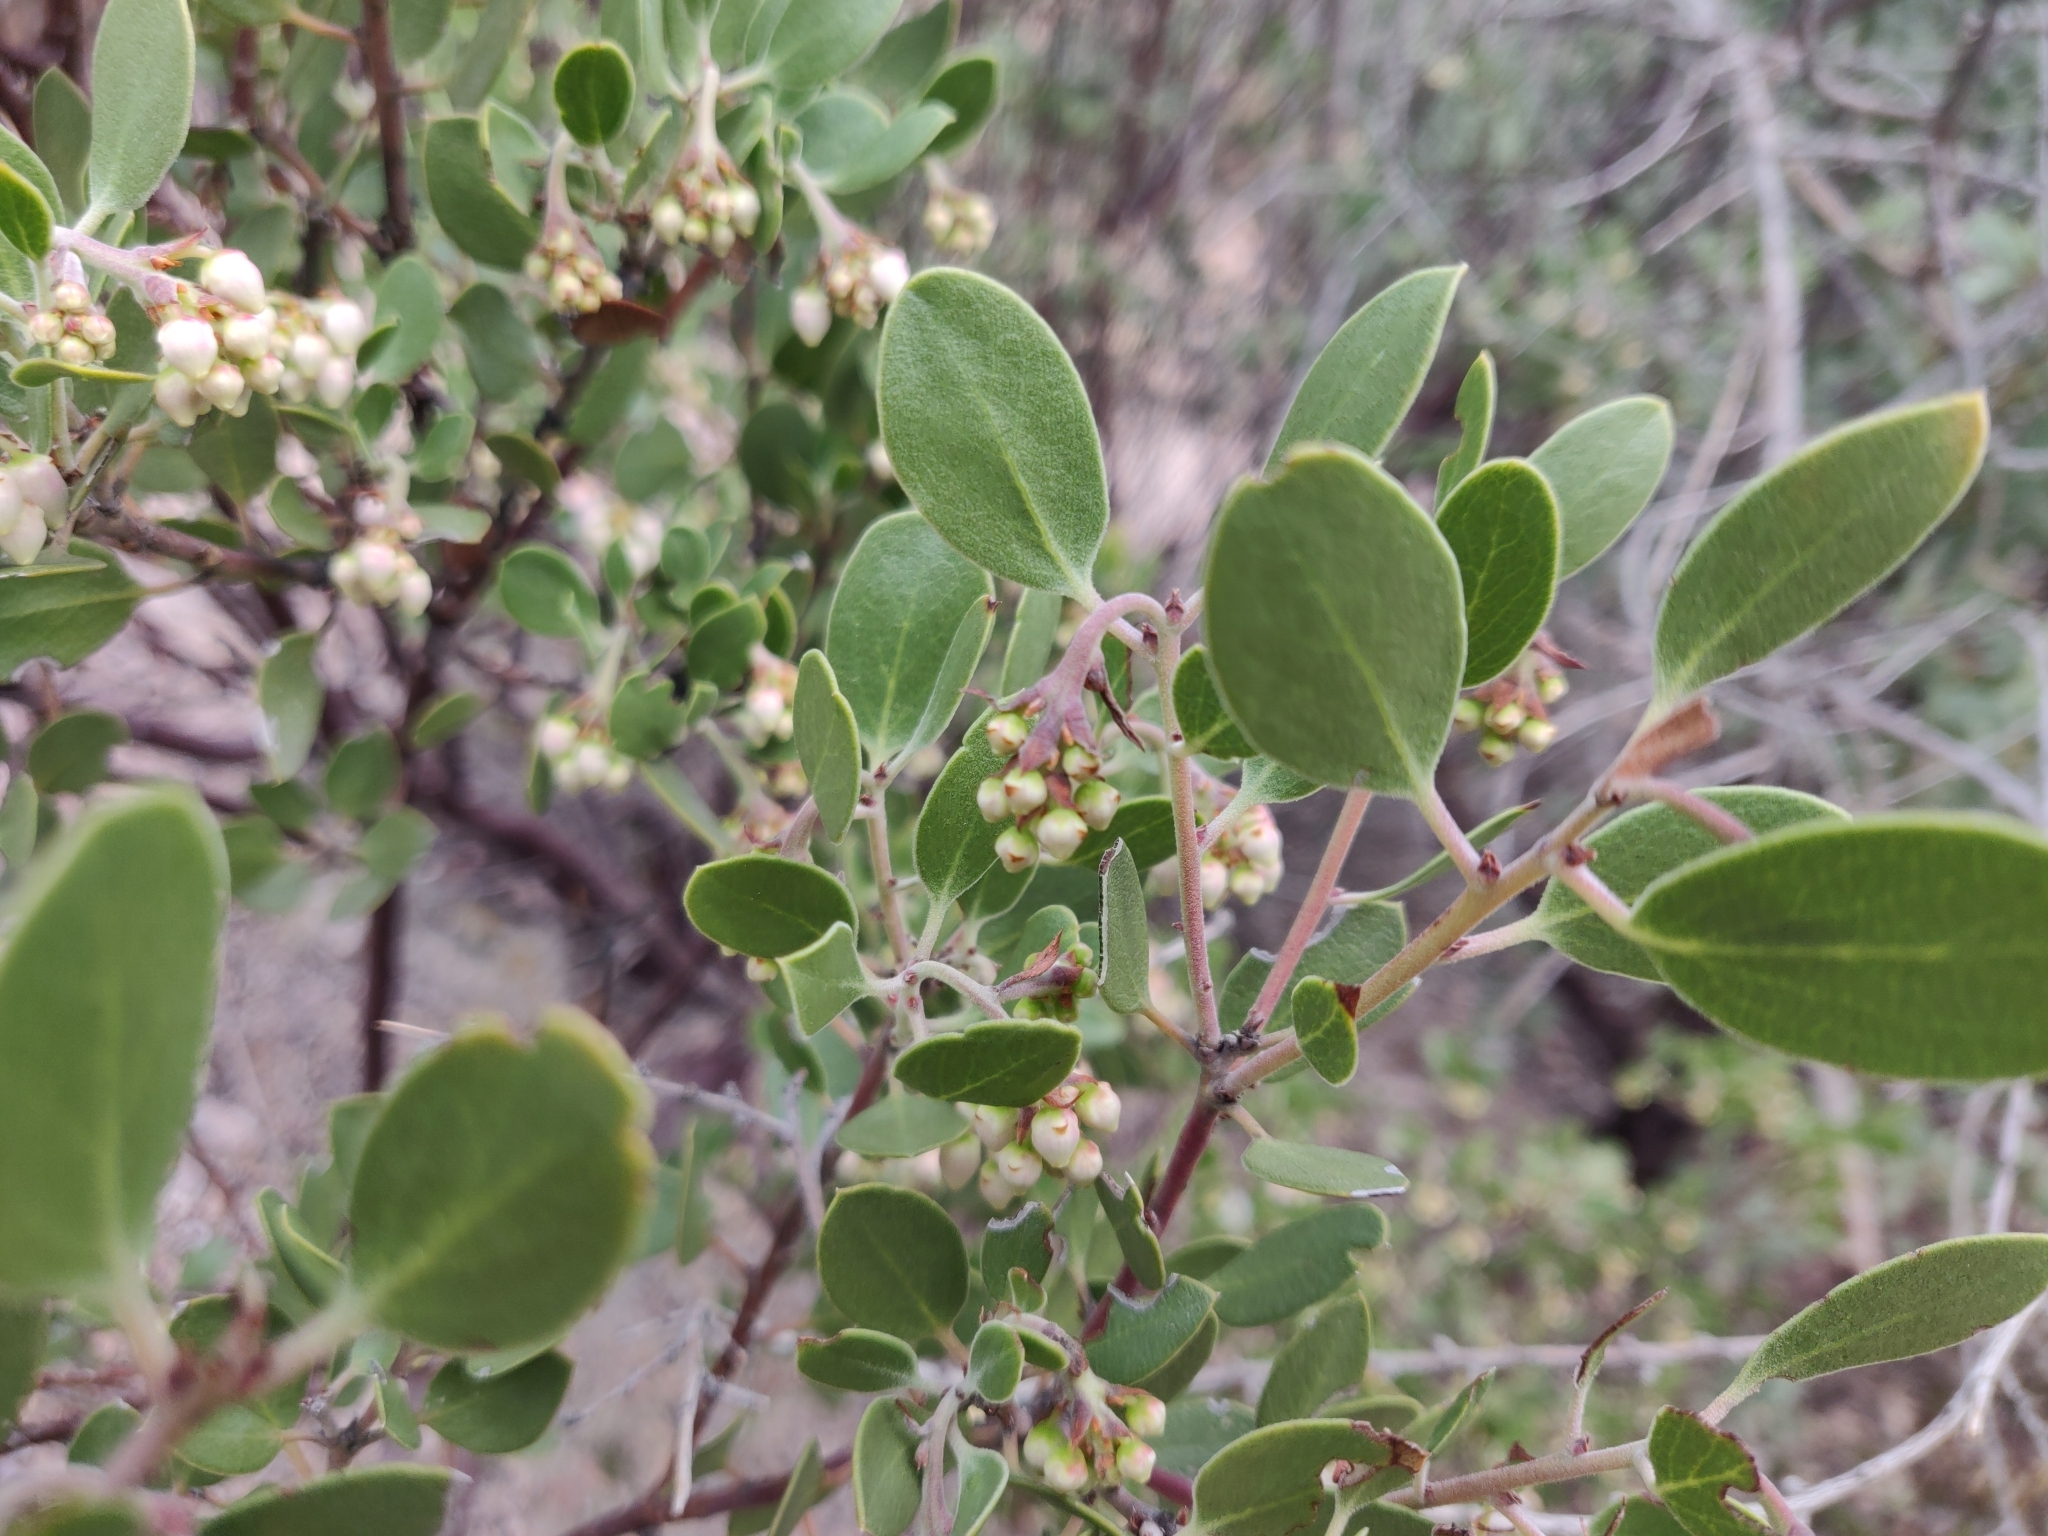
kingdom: Plantae
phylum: Tracheophyta
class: Magnoliopsida
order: Ericales
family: Ericaceae
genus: Arctostaphylos
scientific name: Arctostaphylos pungens
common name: Mexican manzanita
